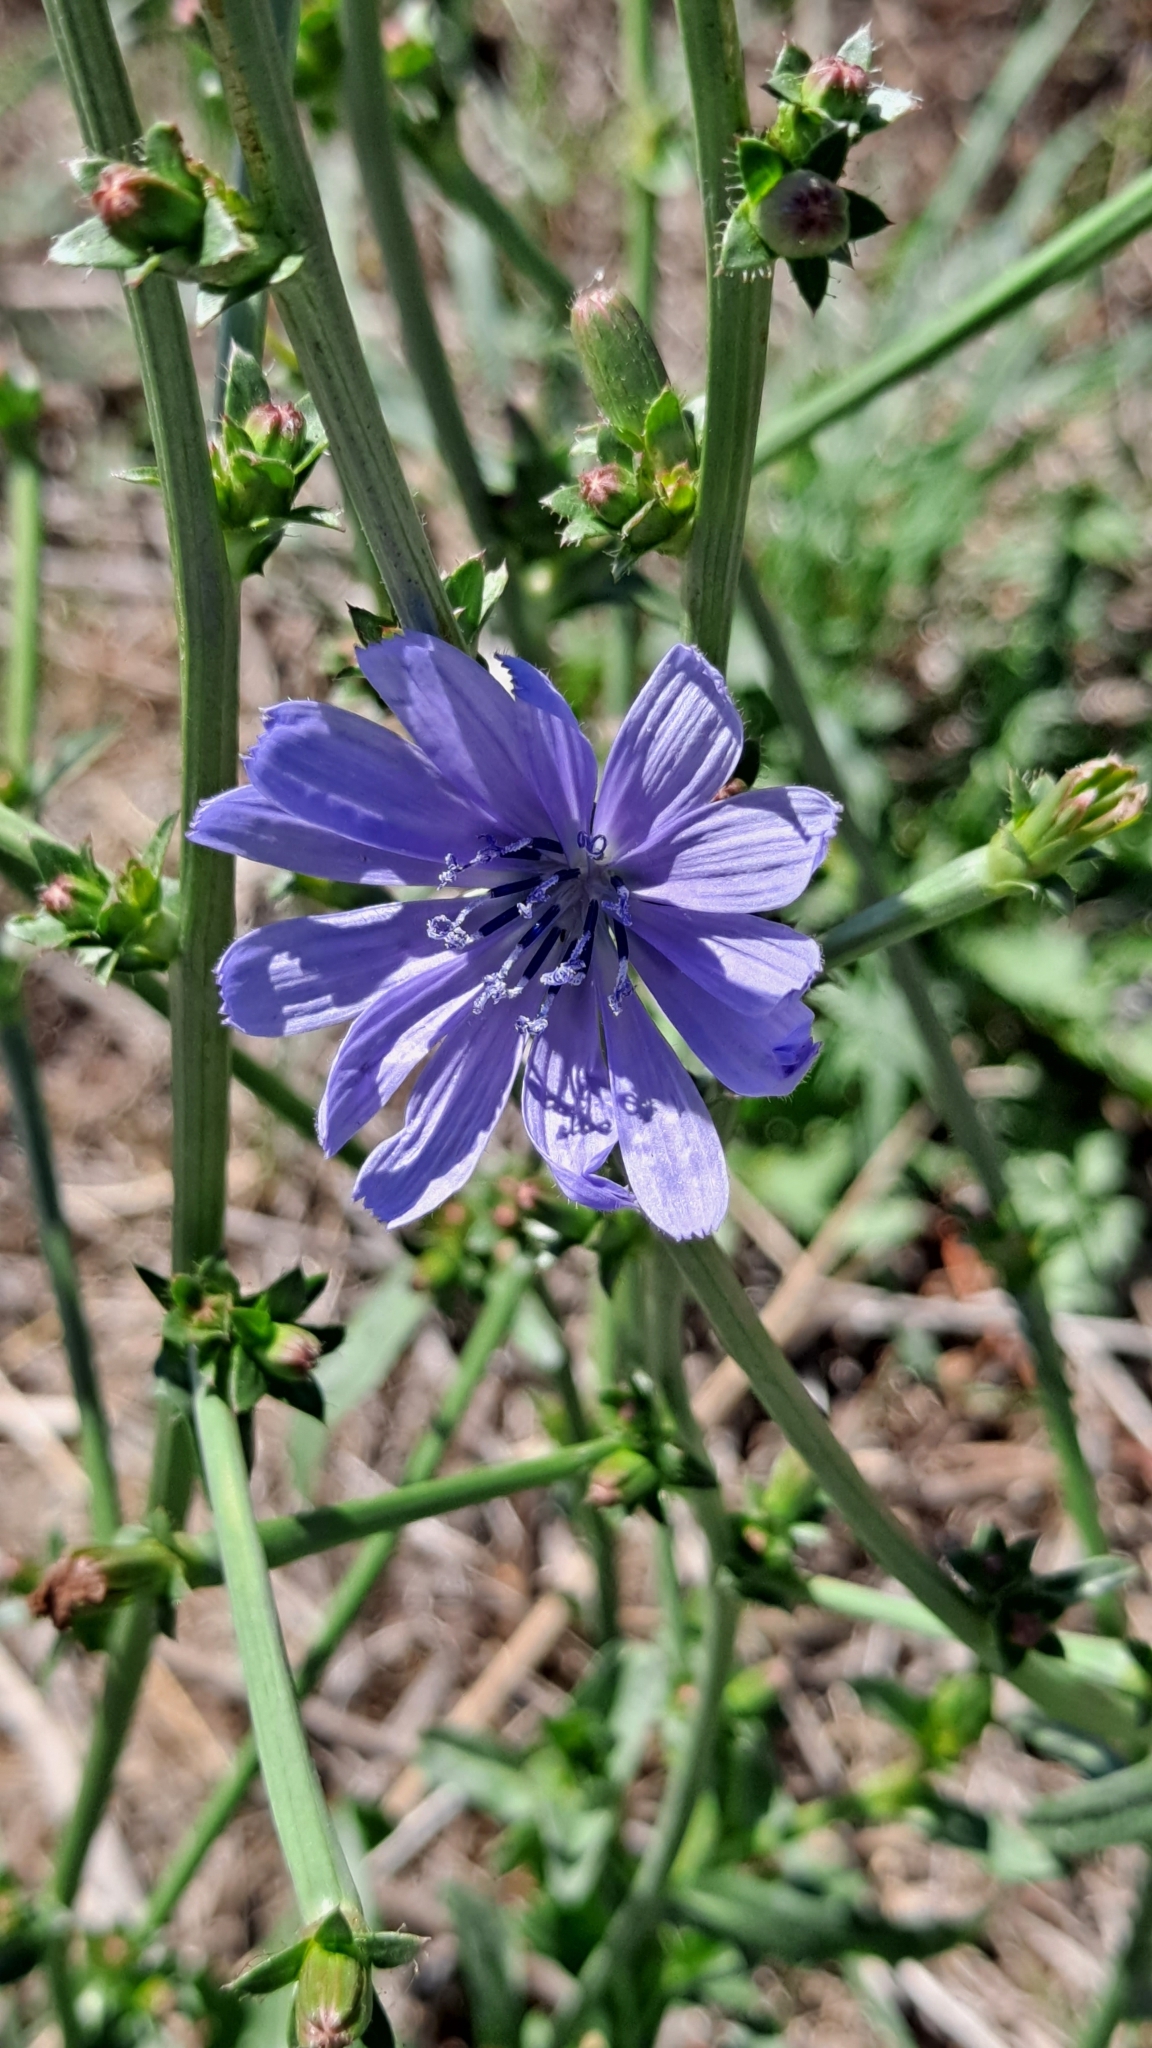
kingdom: Plantae
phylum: Tracheophyta
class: Magnoliopsida
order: Asterales
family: Asteraceae
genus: Cichorium
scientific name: Cichorium intybus
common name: Chicory
